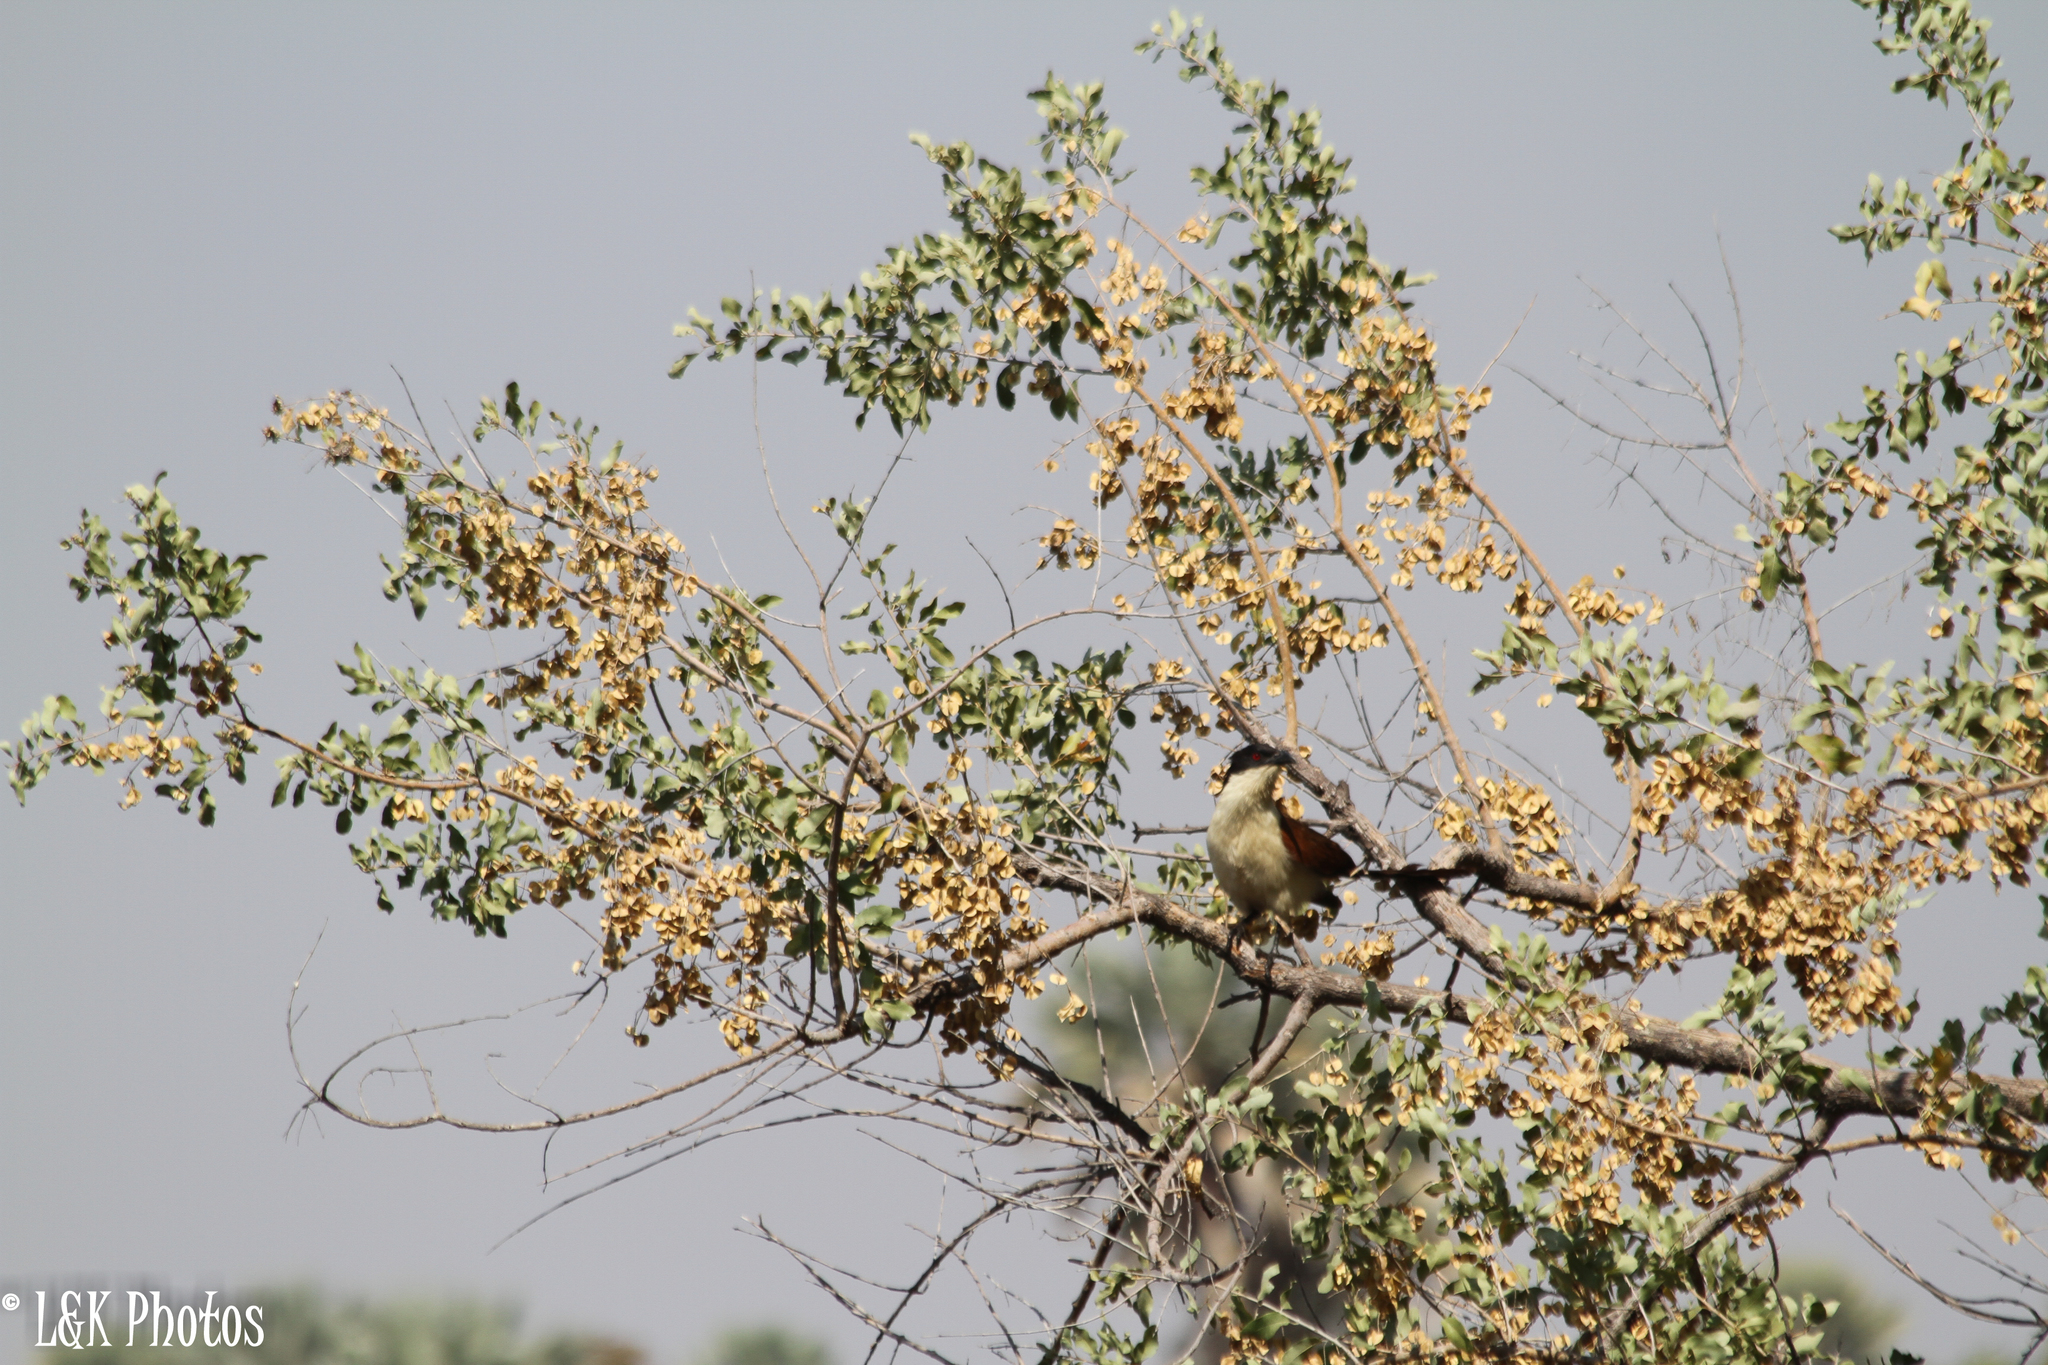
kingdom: Animalia
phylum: Chordata
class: Aves
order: Cuculiformes
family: Cuculidae
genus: Centropus
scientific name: Centropus cupreicaudus
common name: Coppery-tailed coucal
